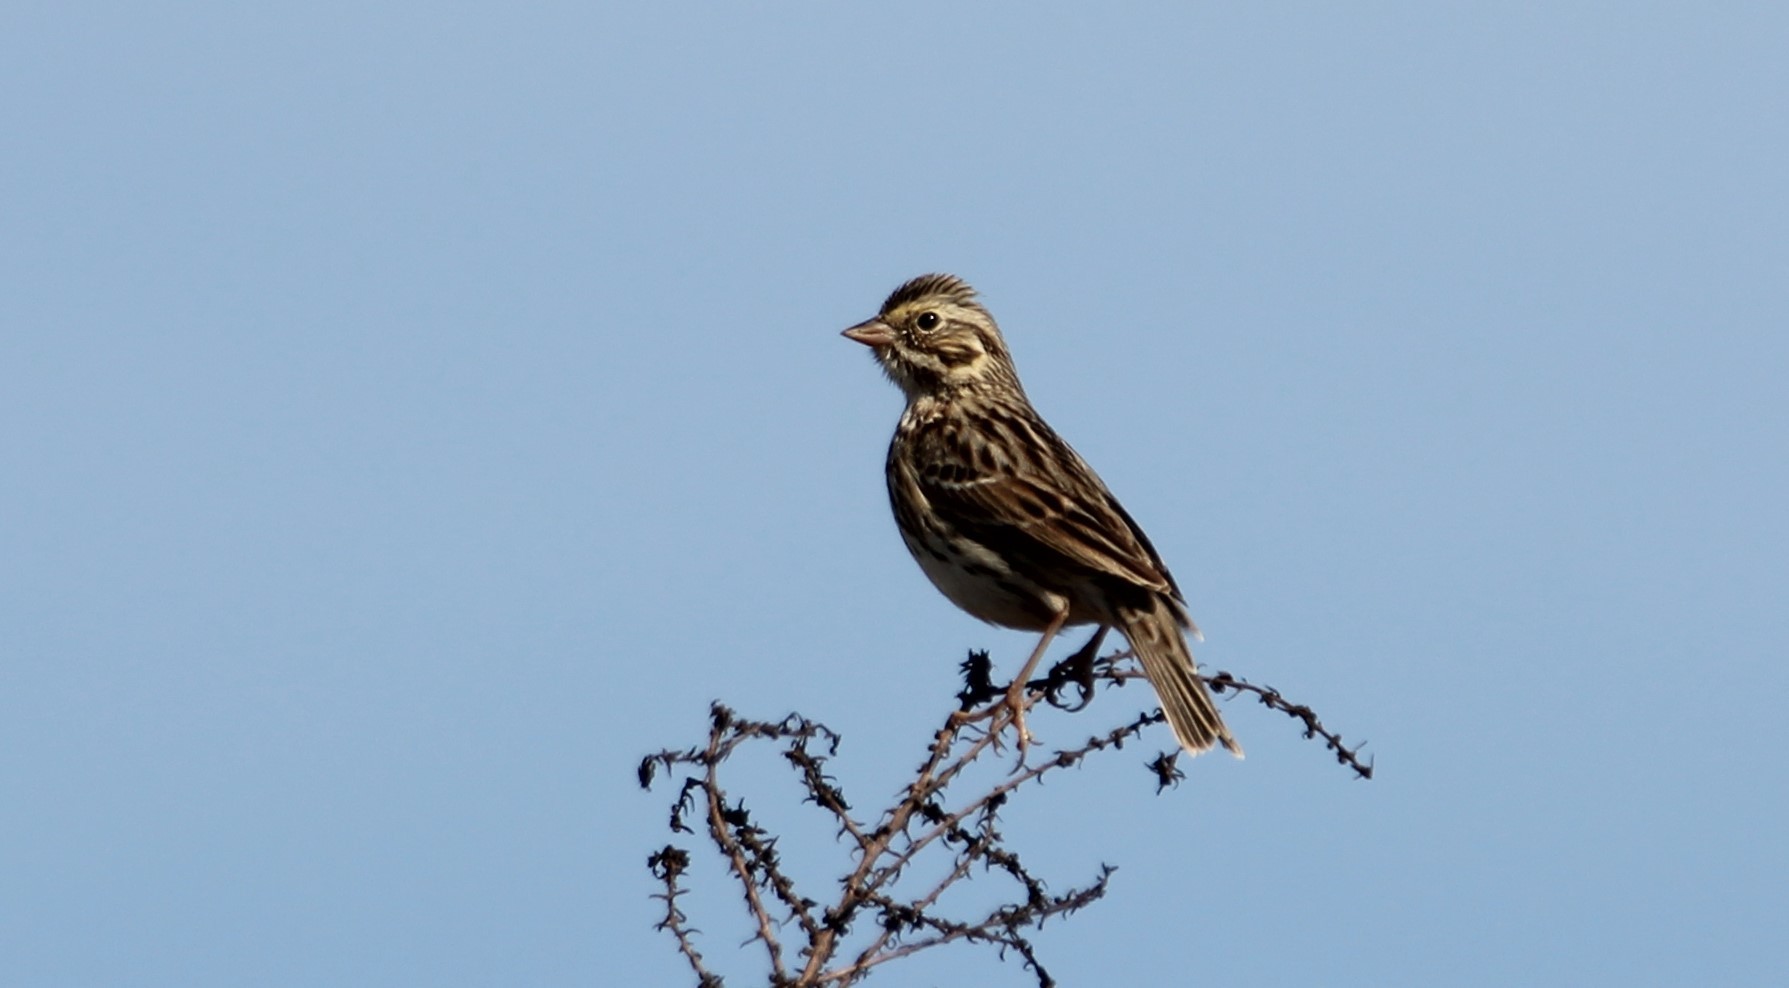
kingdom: Animalia
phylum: Chordata
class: Aves
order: Passeriformes
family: Passerellidae
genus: Passerculus
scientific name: Passerculus sandwichensis
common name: Savannah sparrow
